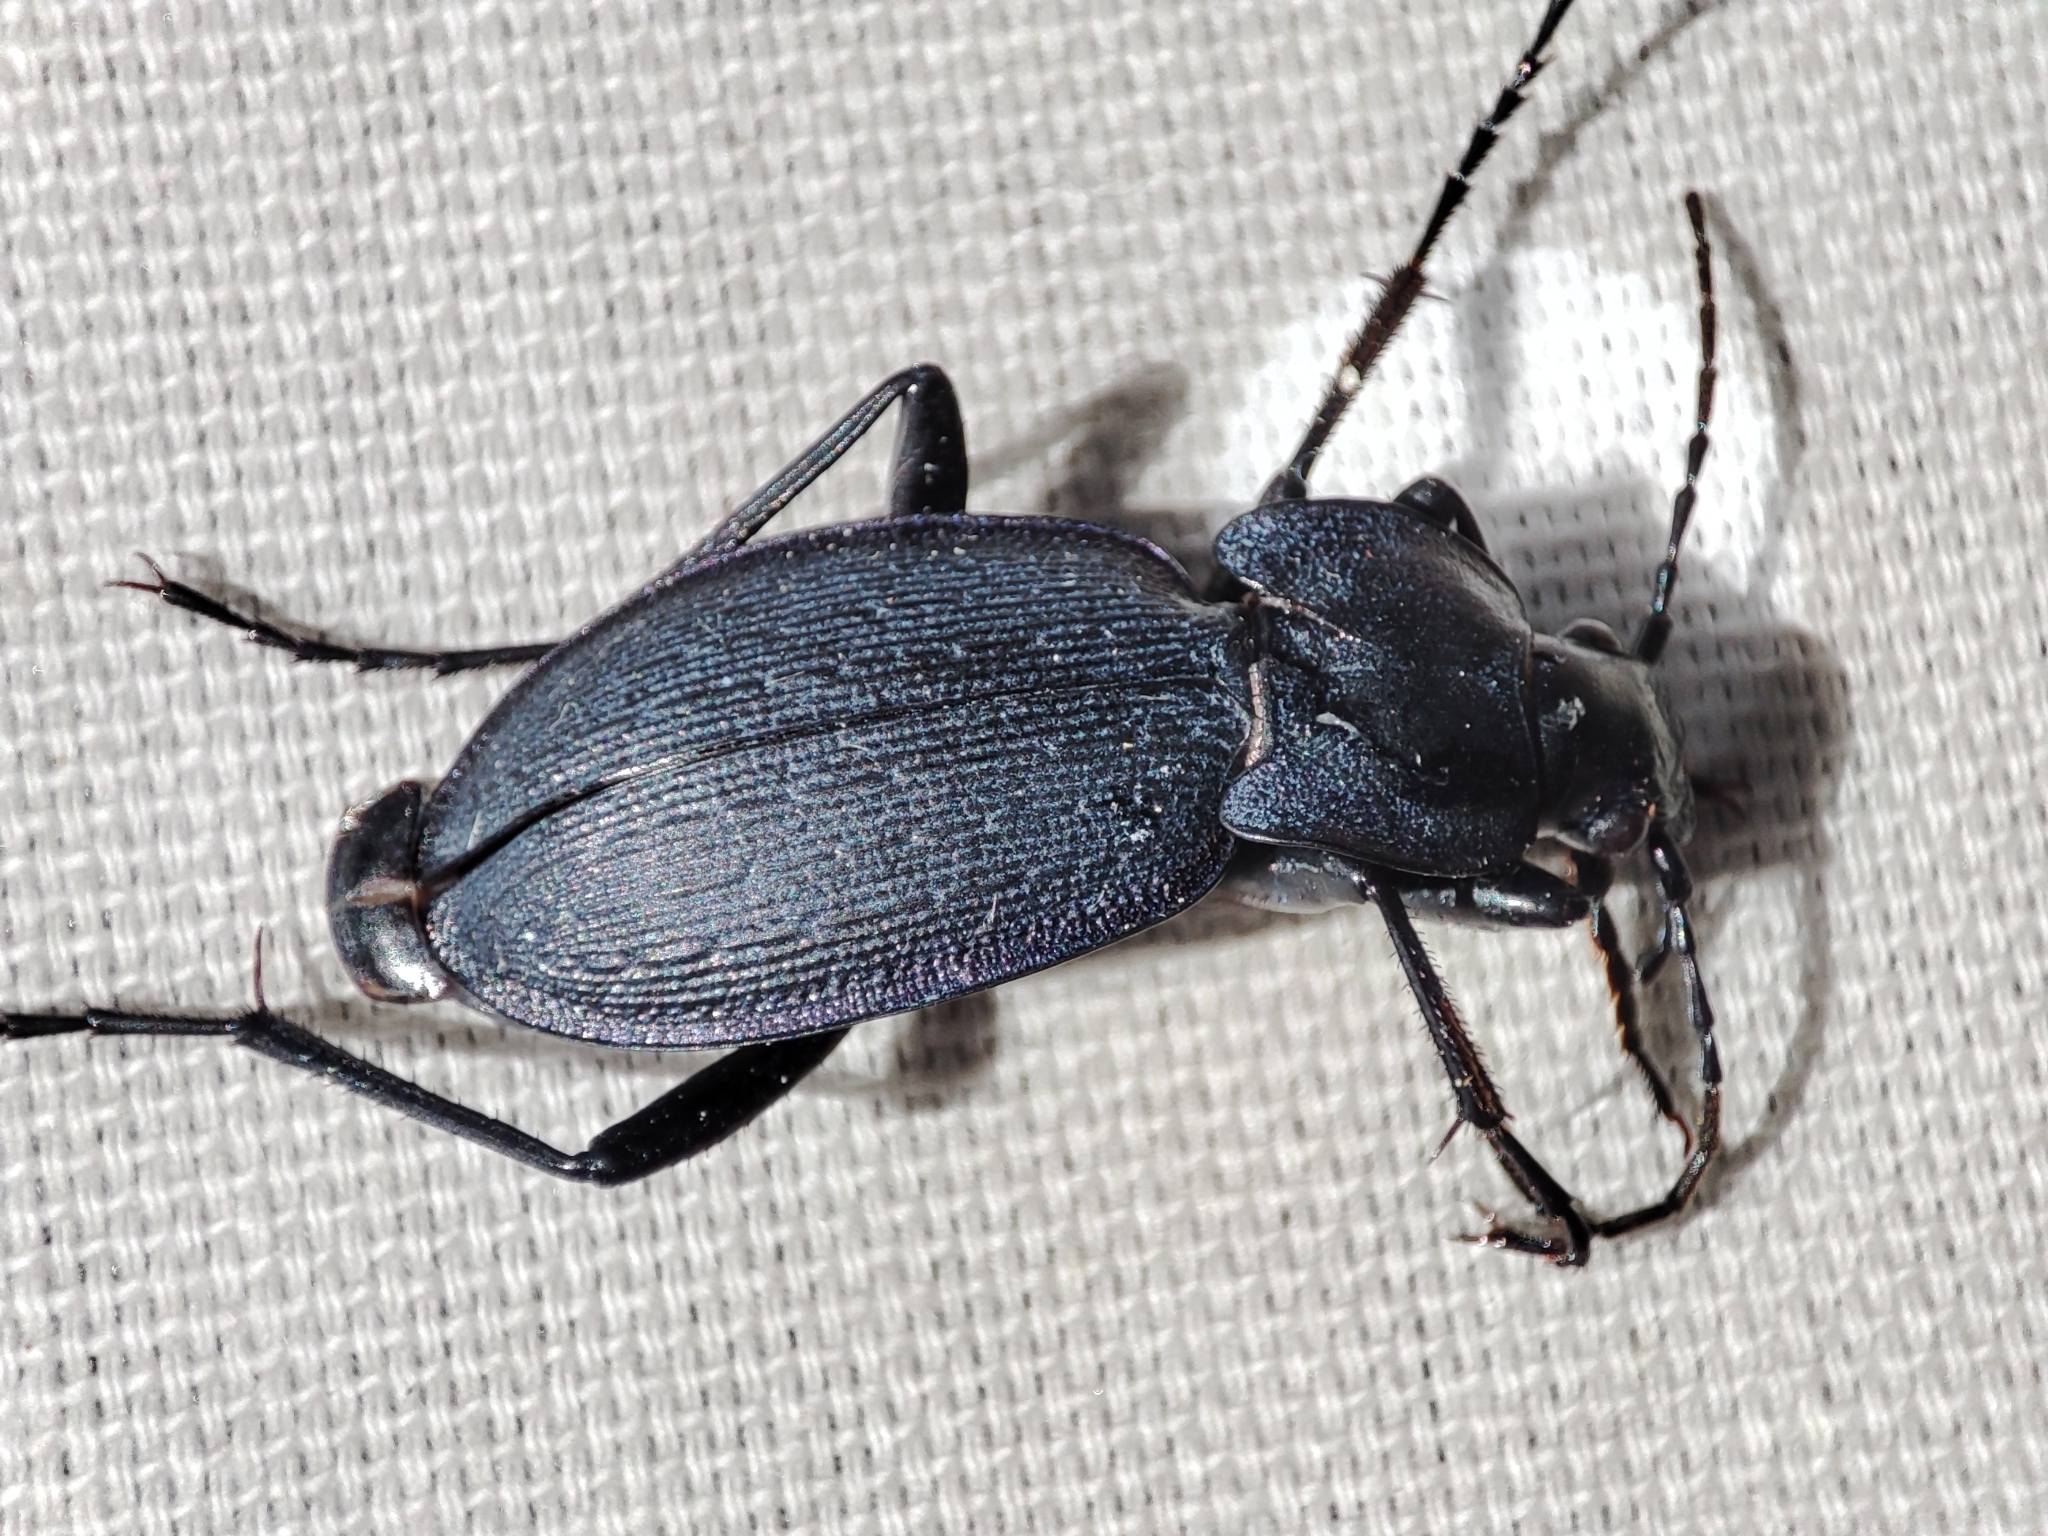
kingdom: Animalia
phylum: Arthropoda
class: Insecta
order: Coleoptera
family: Carabidae
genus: Carabus
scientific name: Carabus problematicus
